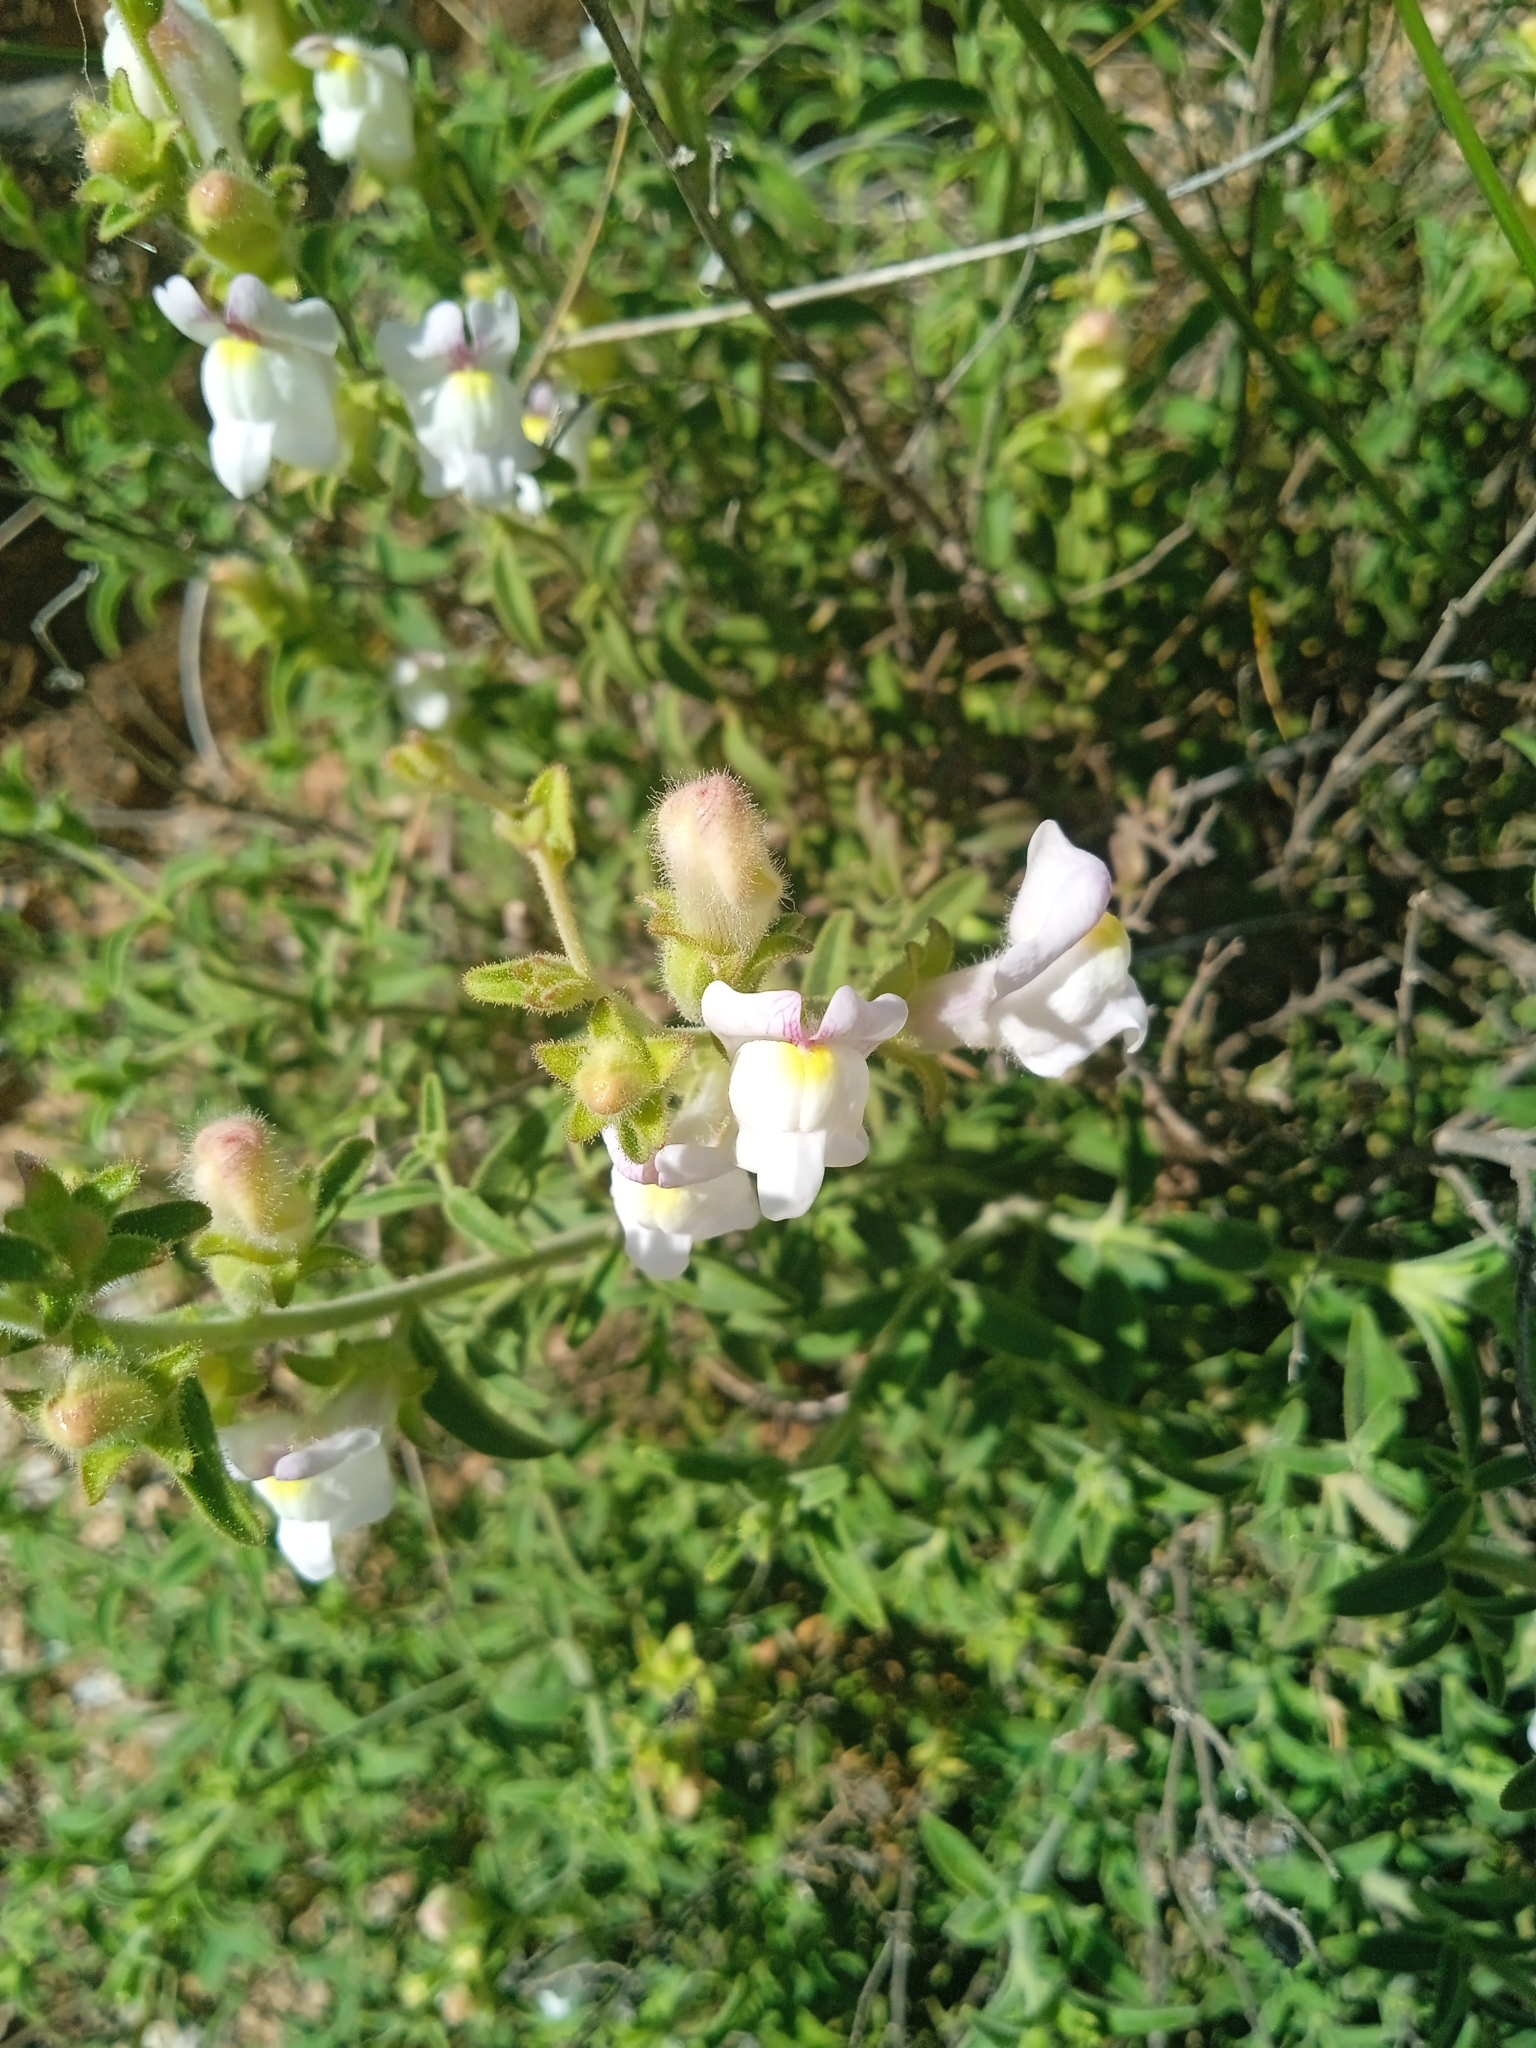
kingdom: Plantae
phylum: Tracheophyta
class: Magnoliopsida
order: Lamiales
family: Plantaginaceae
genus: Antirrhinum
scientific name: Antirrhinum graniticum
